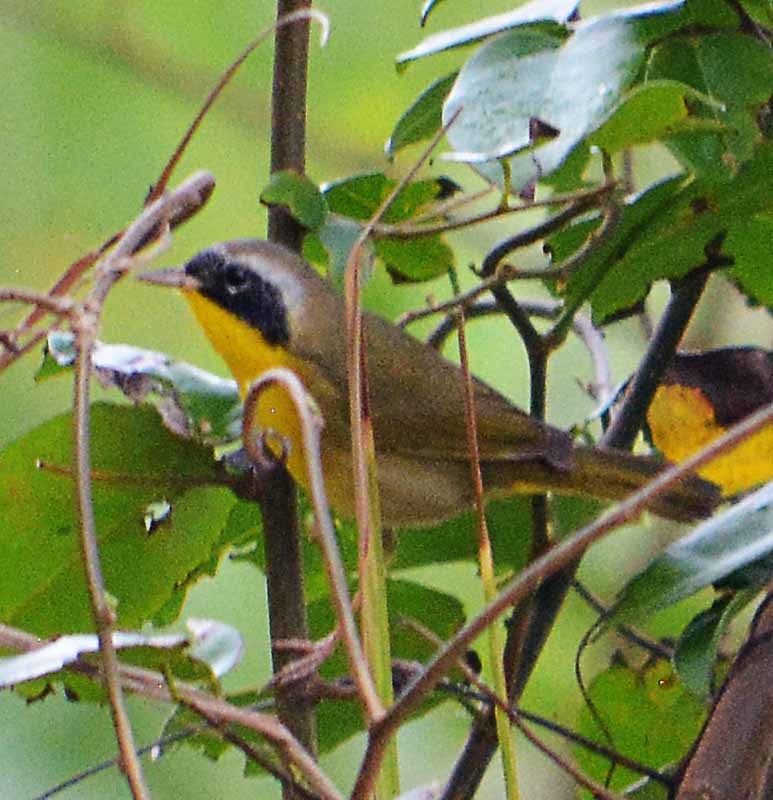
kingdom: Animalia
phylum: Chordata
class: Aves
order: Passeriformes
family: Parulidae
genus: Geothlypis
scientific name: Geothlypis trichas
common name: Common yellowthroat
